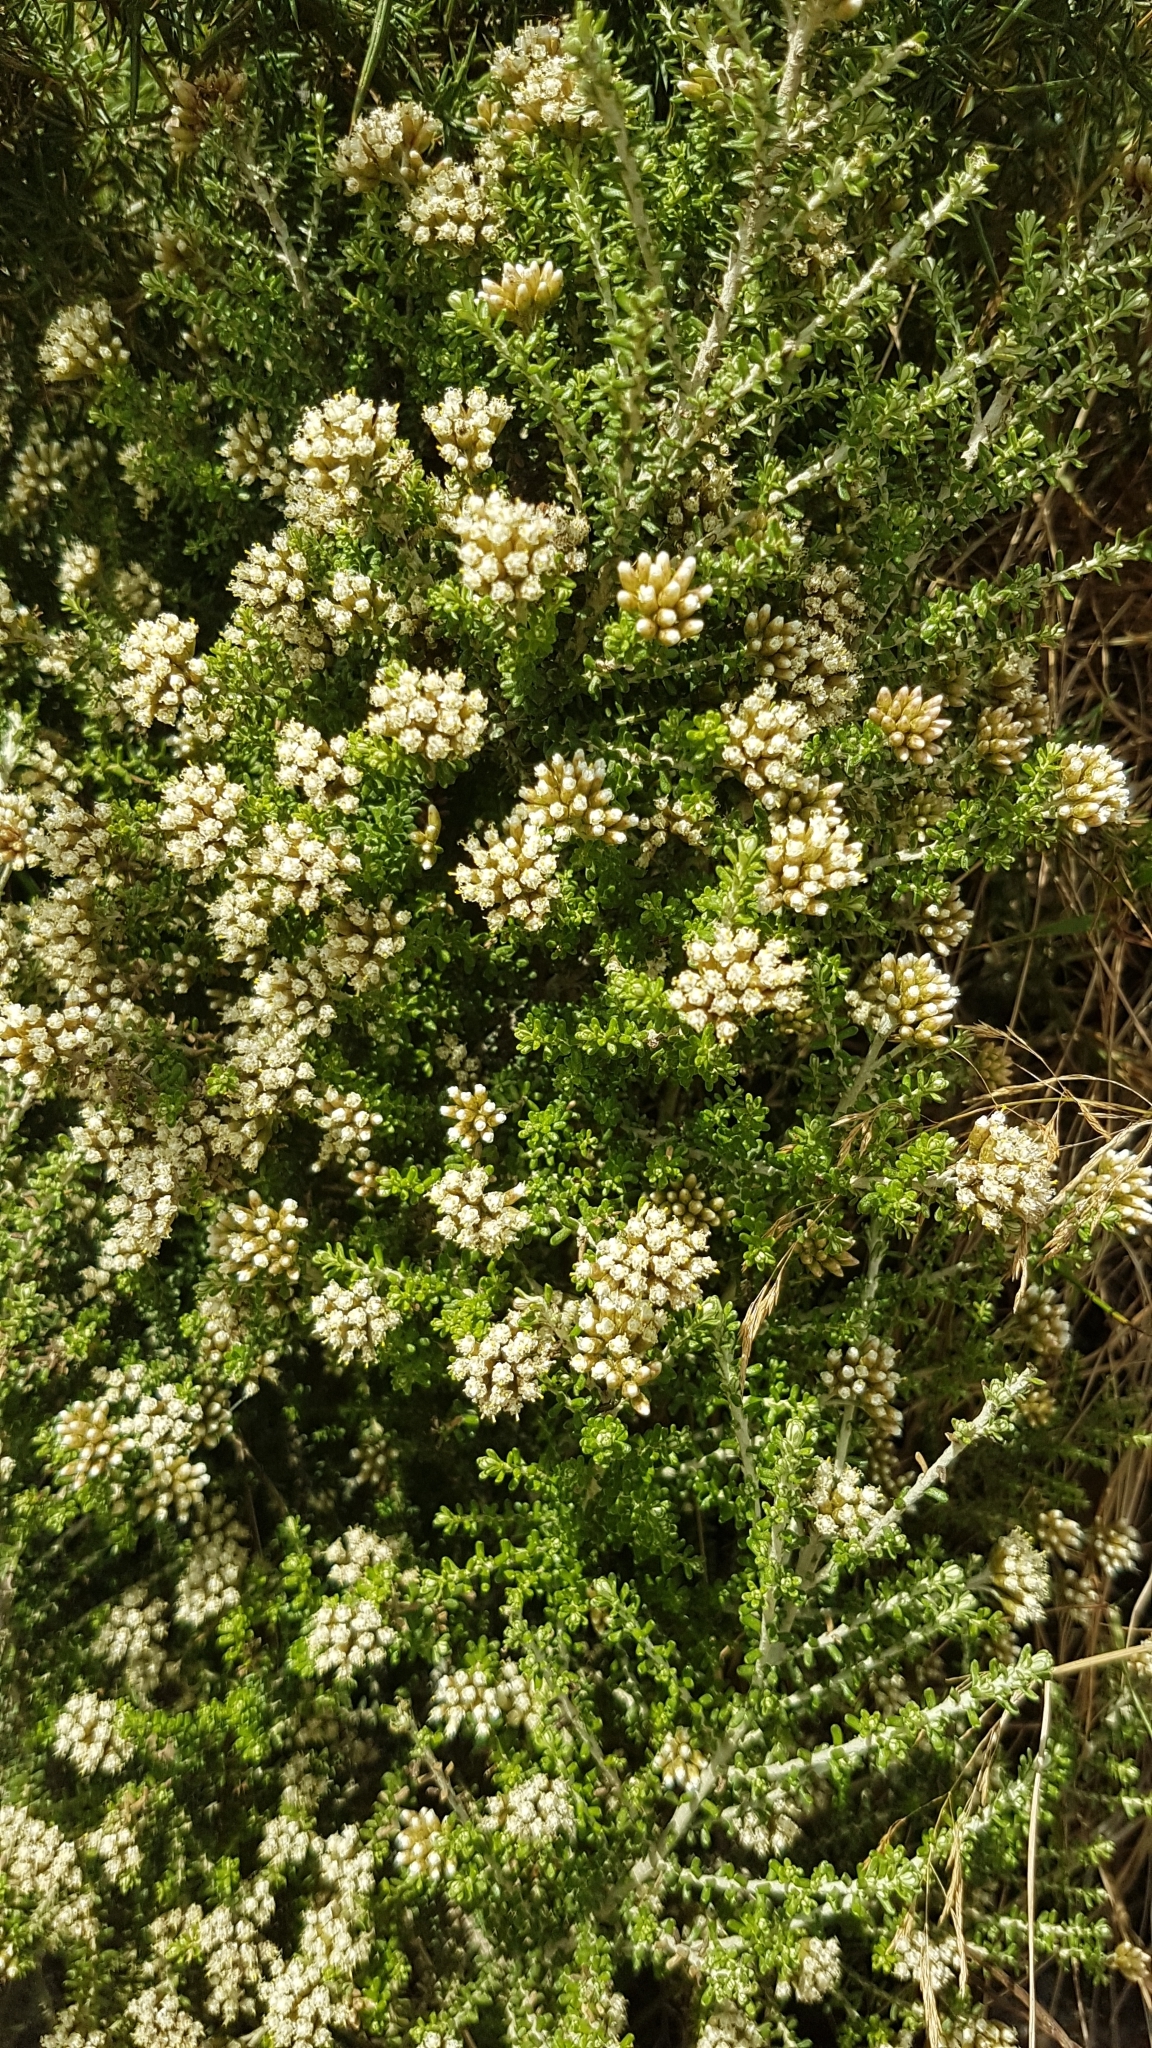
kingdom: Plantae
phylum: Tracheophyta
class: Magnoliopsida
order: Asterales
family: Asteraceae
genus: Ozothamnus
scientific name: Ozothamnus leptophyllus
